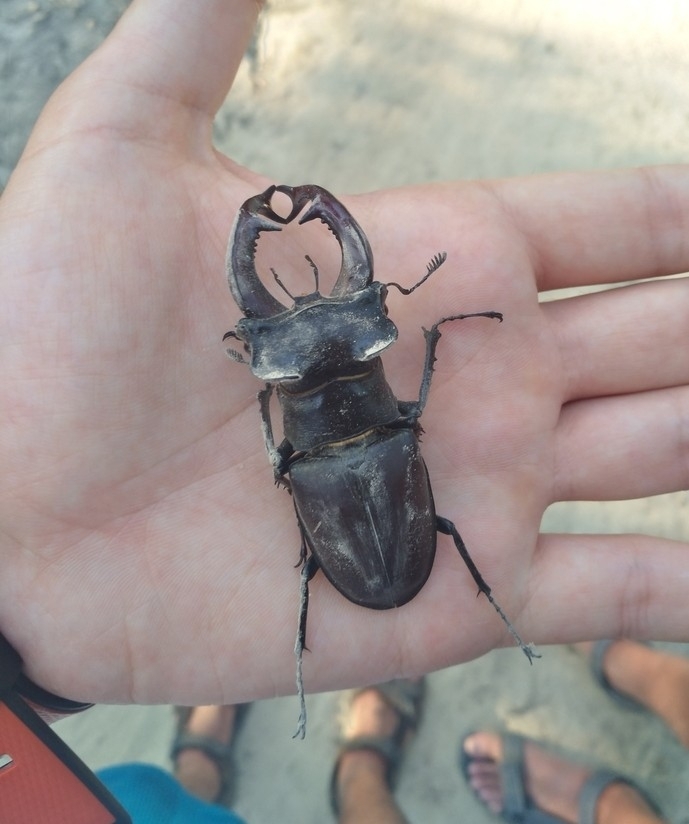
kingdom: Animalia
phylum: Arthropoda
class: Insecta
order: Coleoptera
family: Lucanidae
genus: Lucanus
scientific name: Lucanus cervus
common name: Stag beetle
